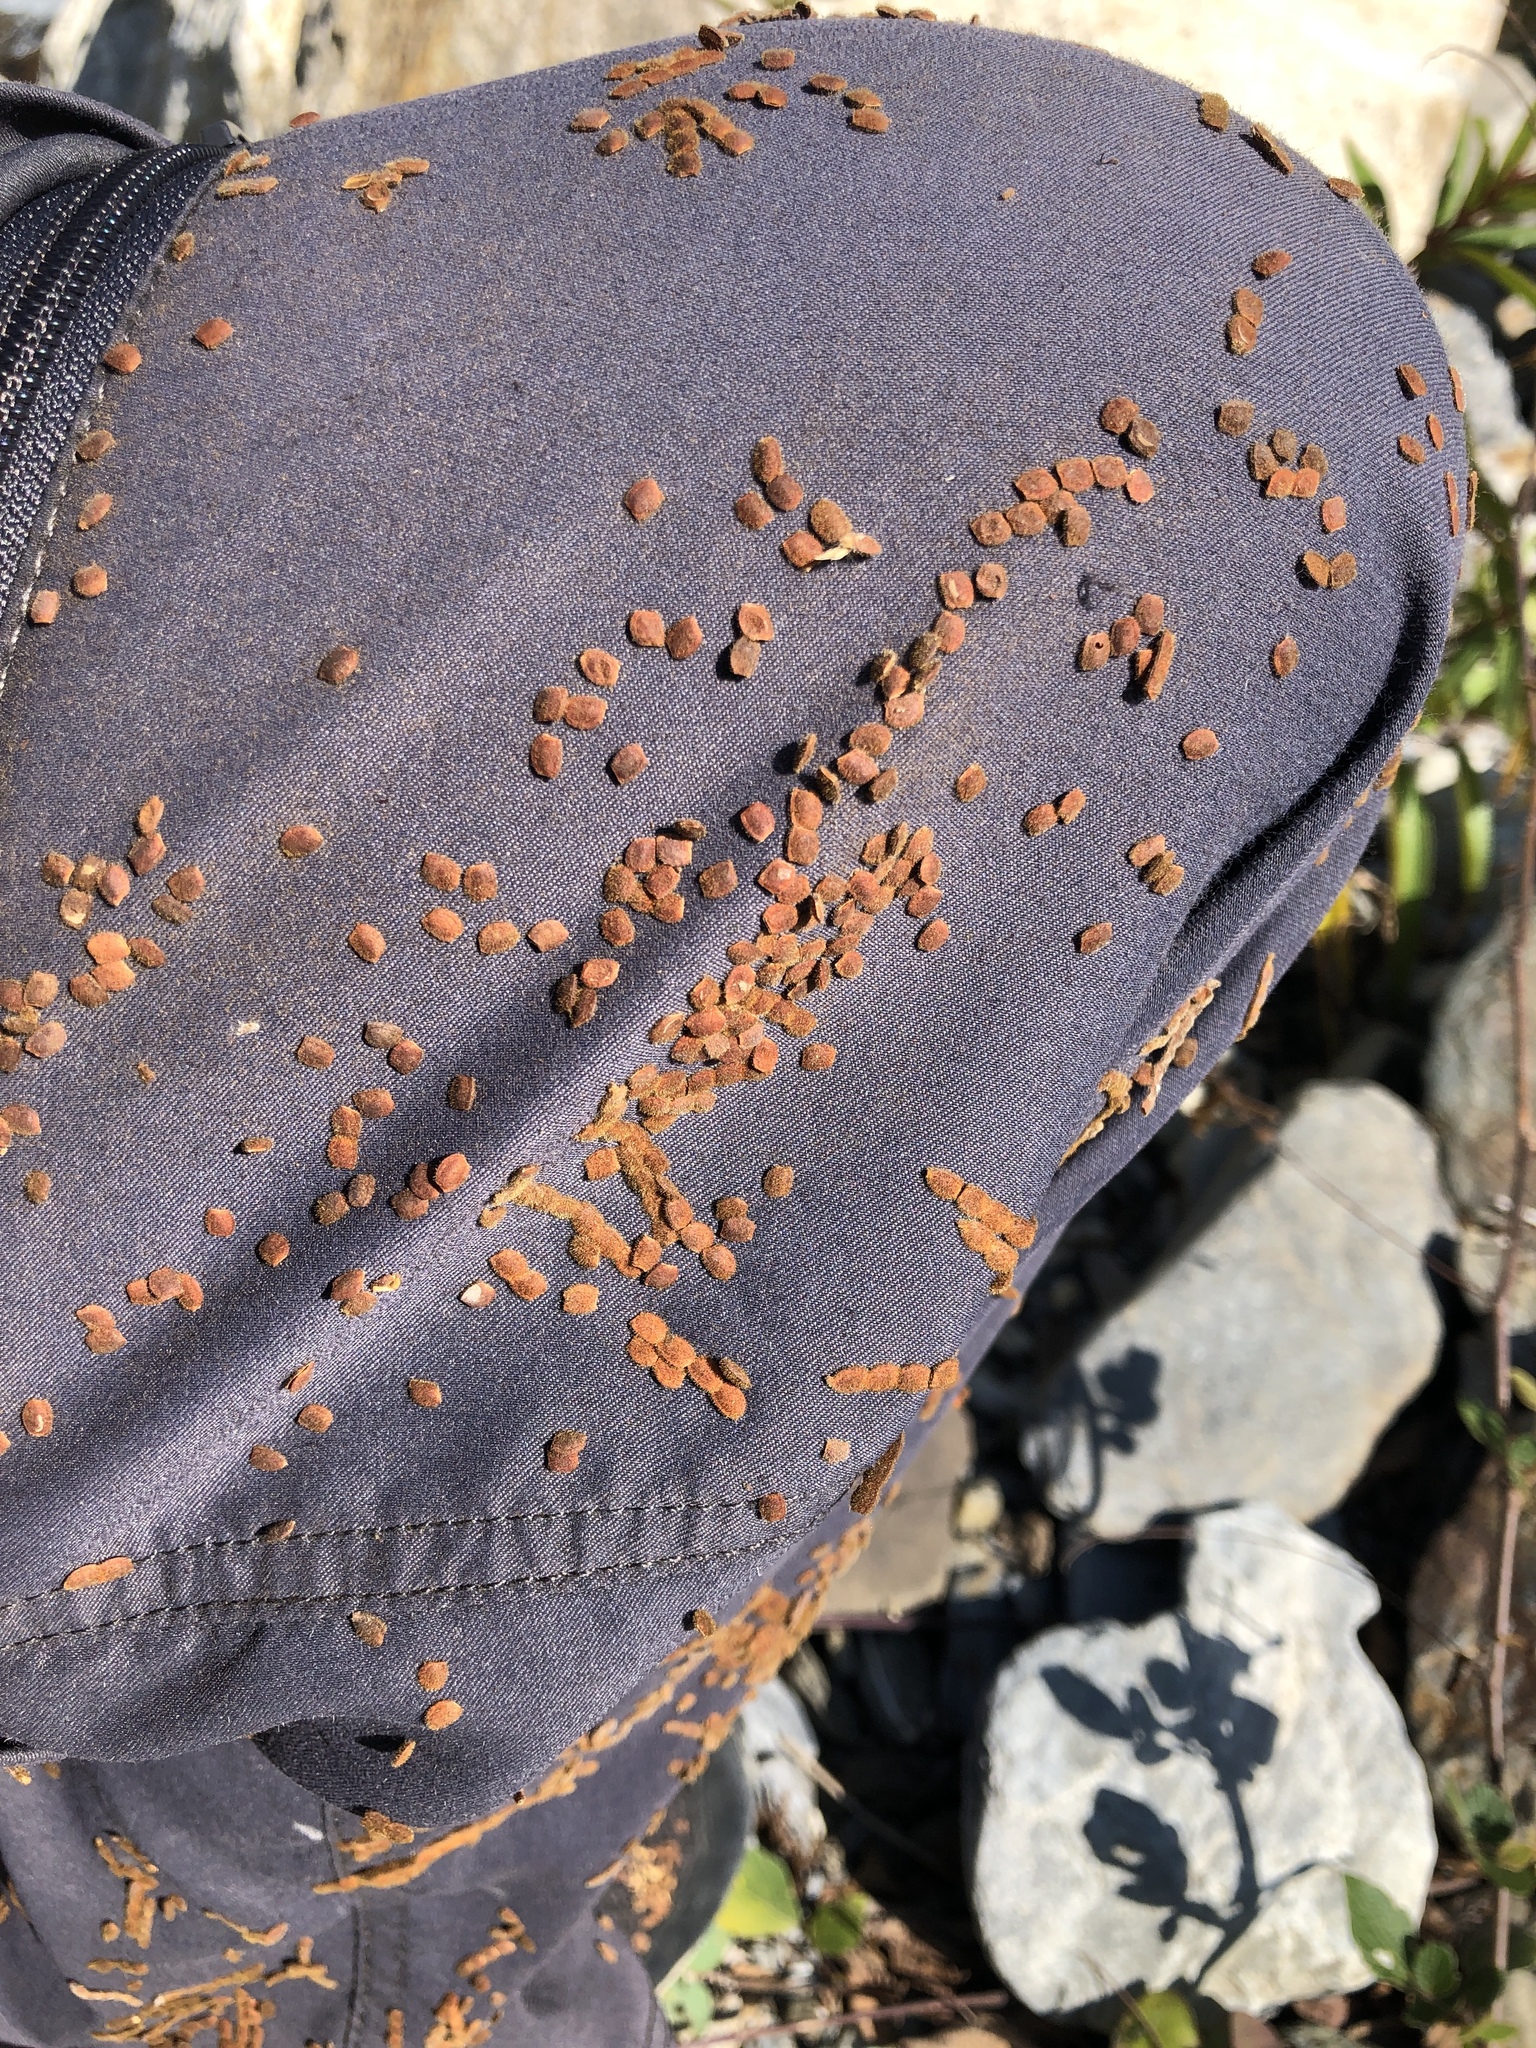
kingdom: Plantae
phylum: Tracheophyta
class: Magnoliopsida
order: Fabales
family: Fabaceae
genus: Puhuaea
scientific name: Puhuaea sequax
